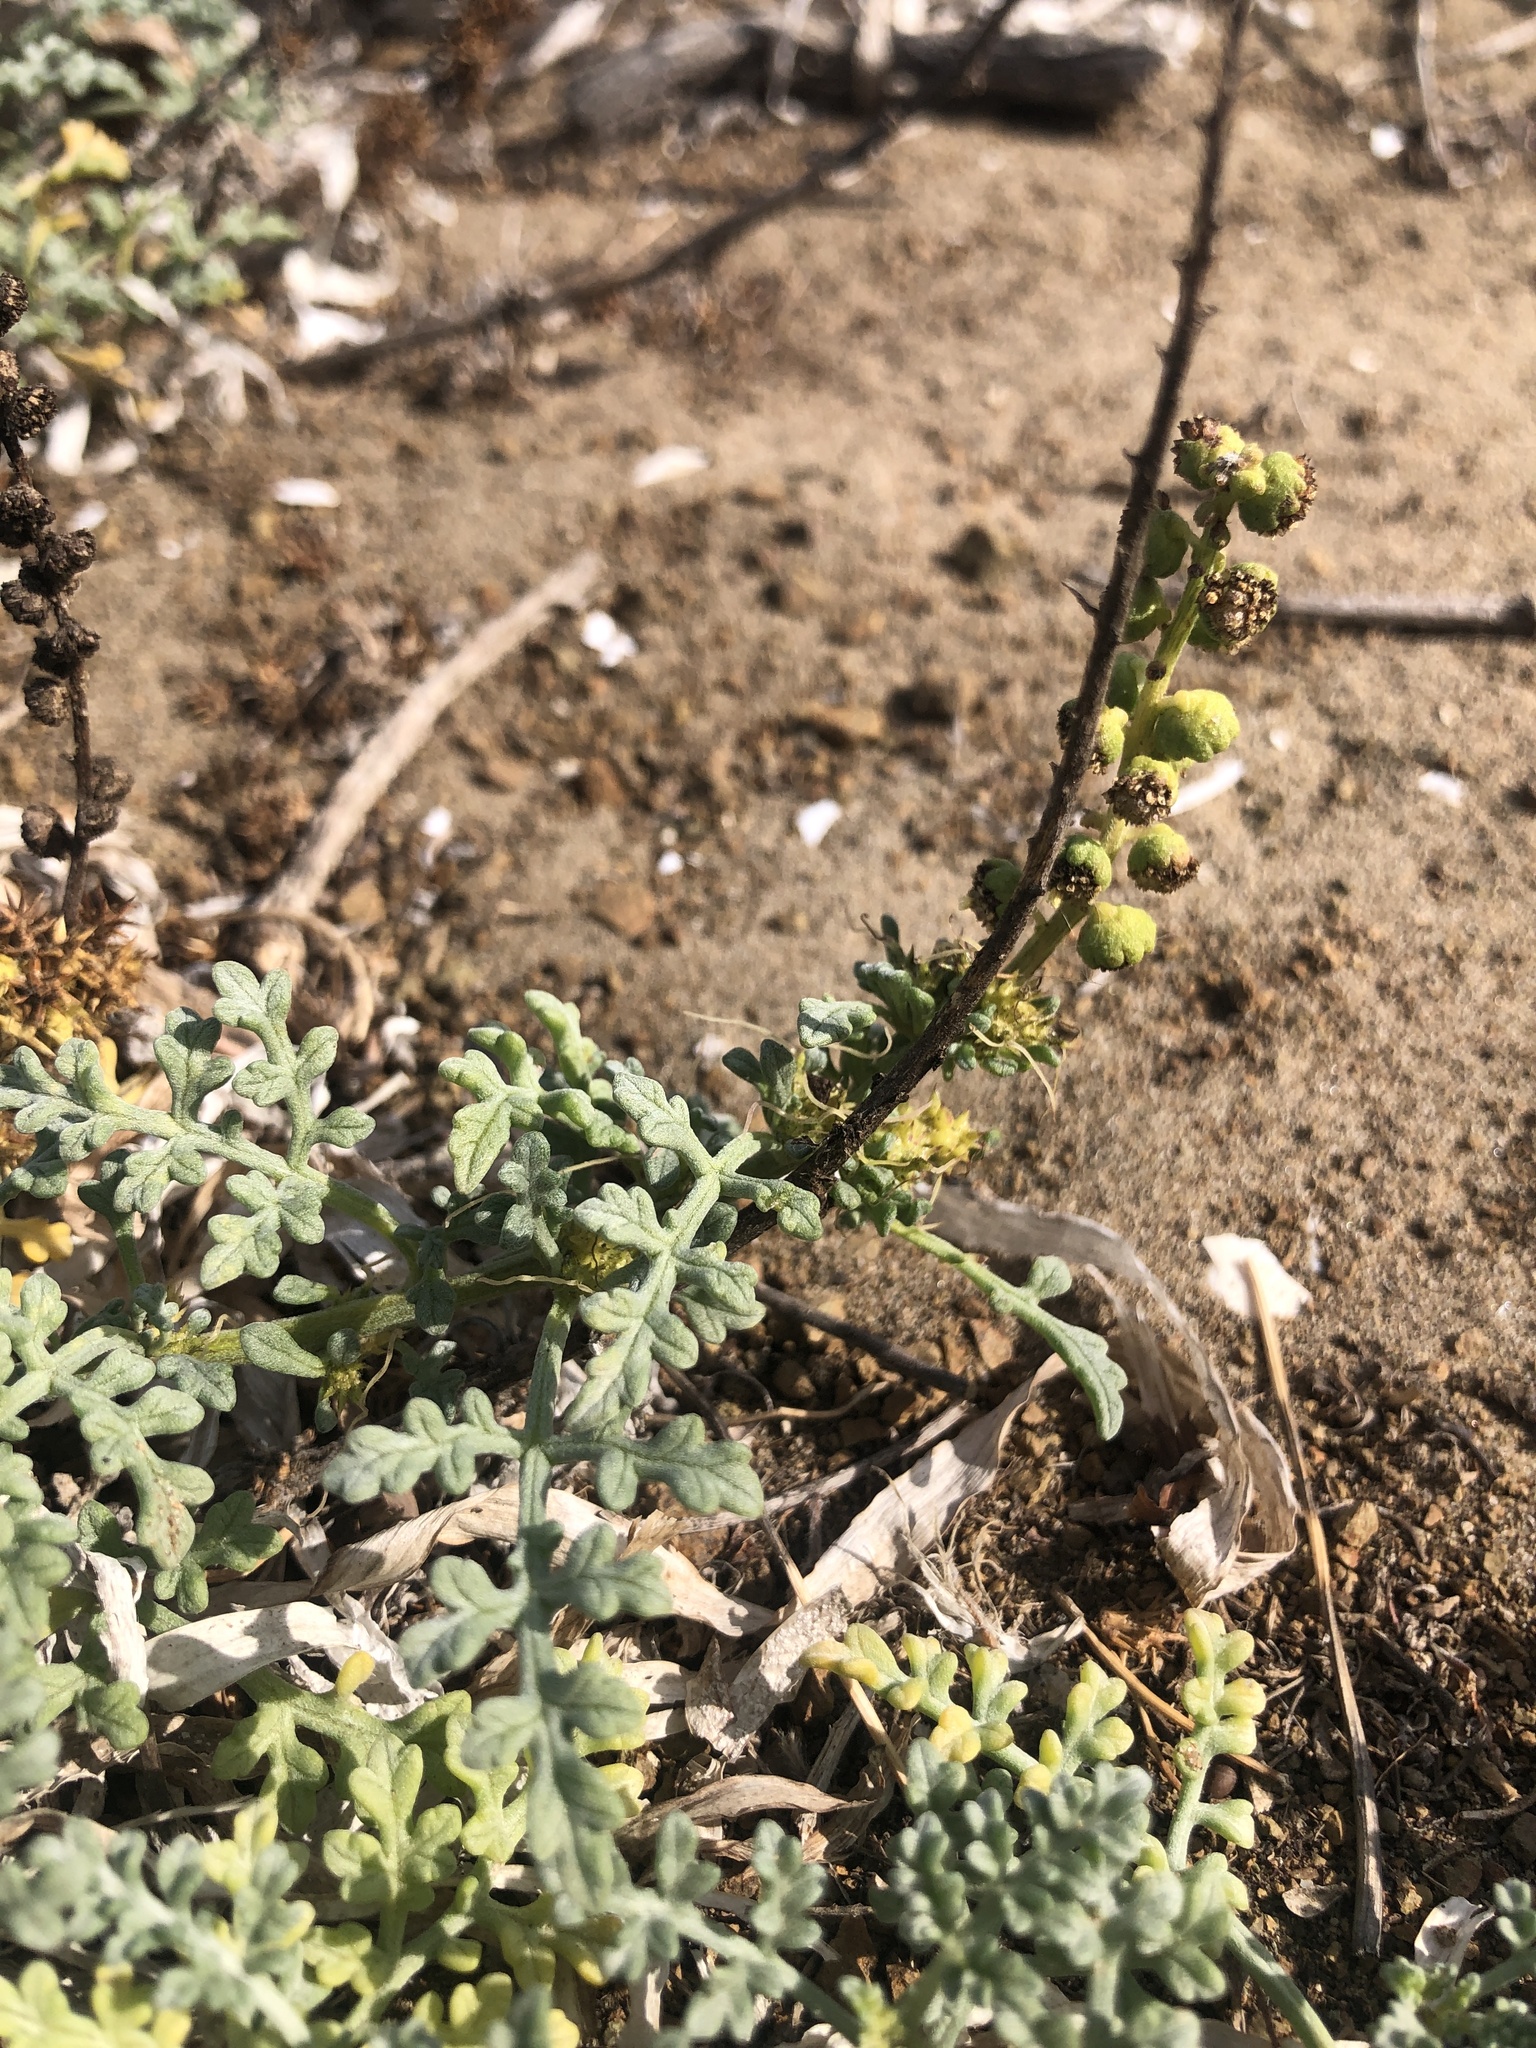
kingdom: Plantae
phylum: Tracheophyta
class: Magnoliopsida
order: Asterales
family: Asteraceae
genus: Ambrosia
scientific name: Ambrosia chamissonis
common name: Beachbur
